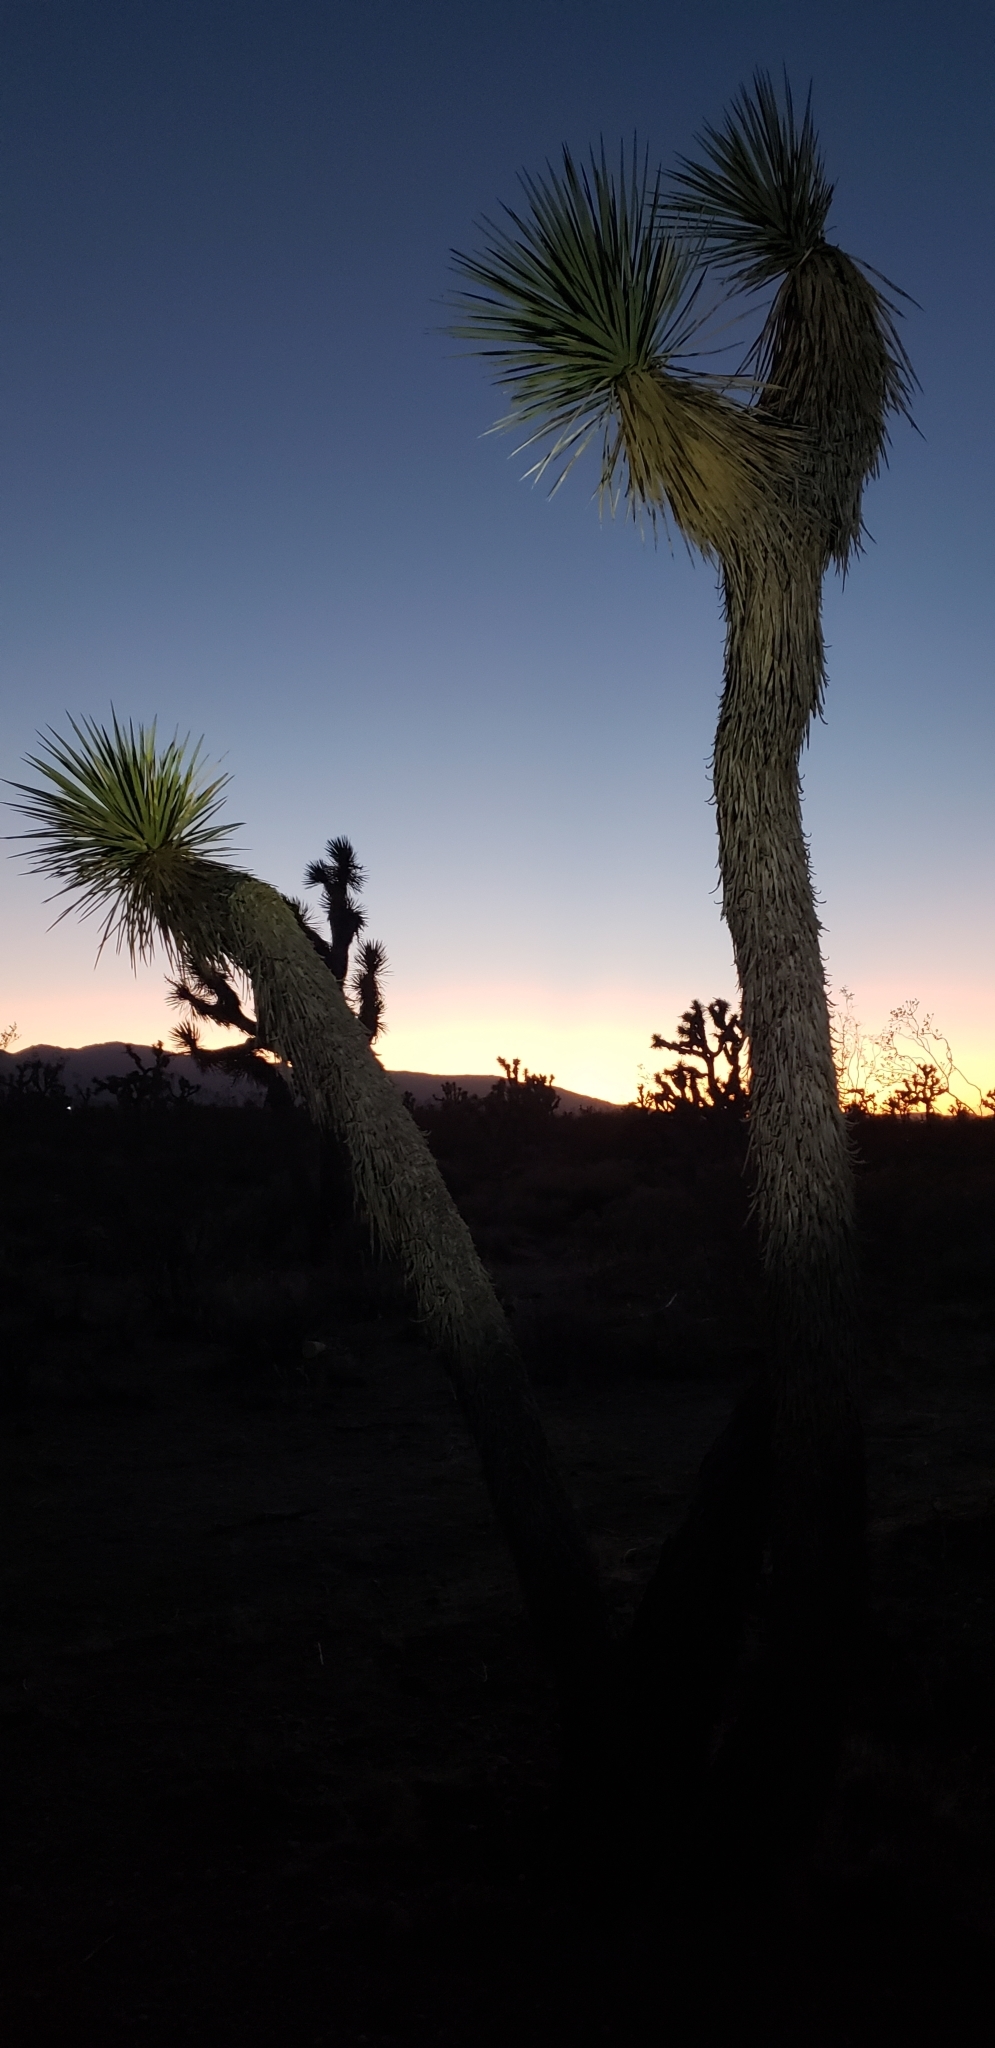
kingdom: Plantae
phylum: Tracheophyta
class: Liliopsida
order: Asparagales
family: Asparagaceae
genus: Yucca
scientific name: Yucca brevifolia
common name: Joshua tree
